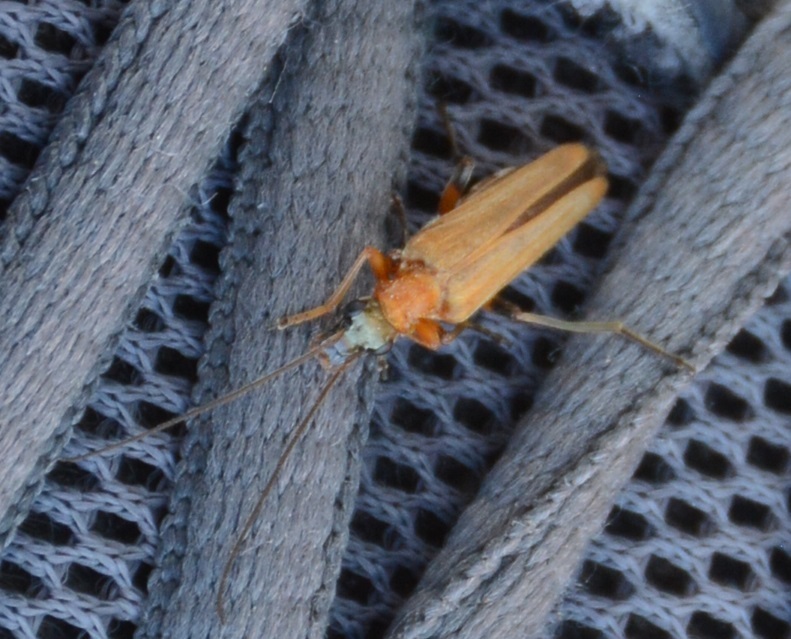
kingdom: Animalia
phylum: Arthropoda
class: Insecta
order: Coleoptera
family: Oedemeridae
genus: Oedemera
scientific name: Oedemera podagrariae
